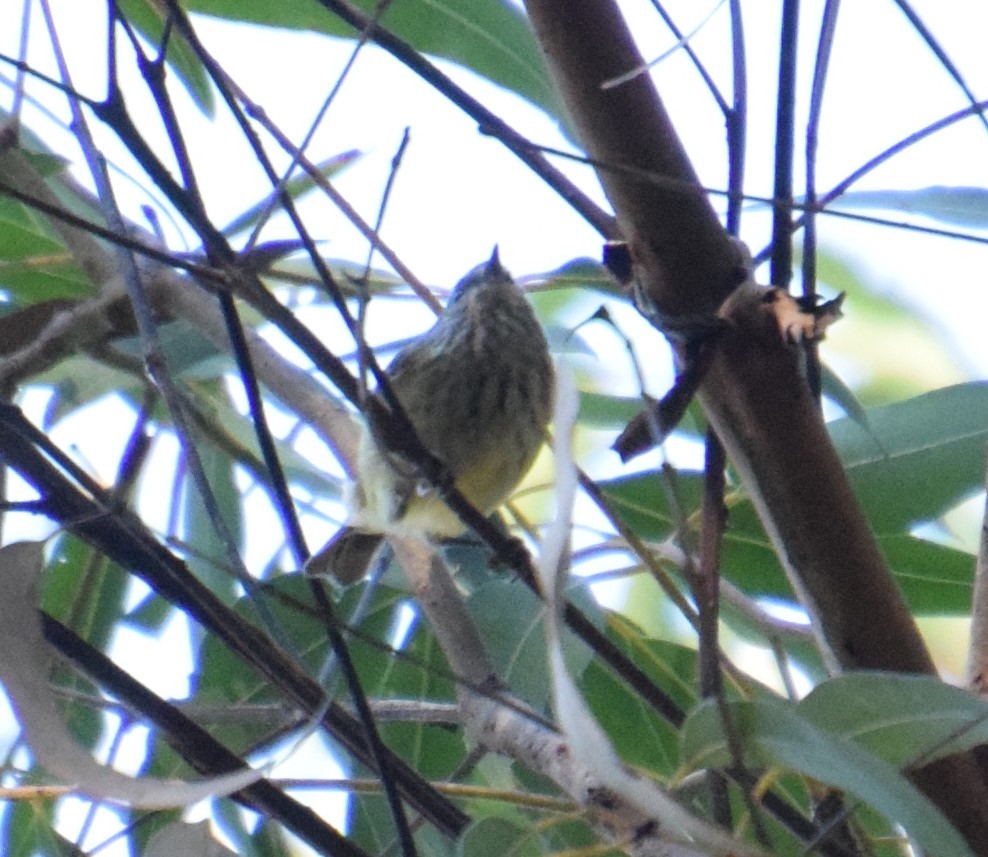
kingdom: Animalia
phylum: Chordata
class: Aves
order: Passeriformes
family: Acanthizidae
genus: Acanthiza
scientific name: Acanthiza lineata
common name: Striated thornbill
